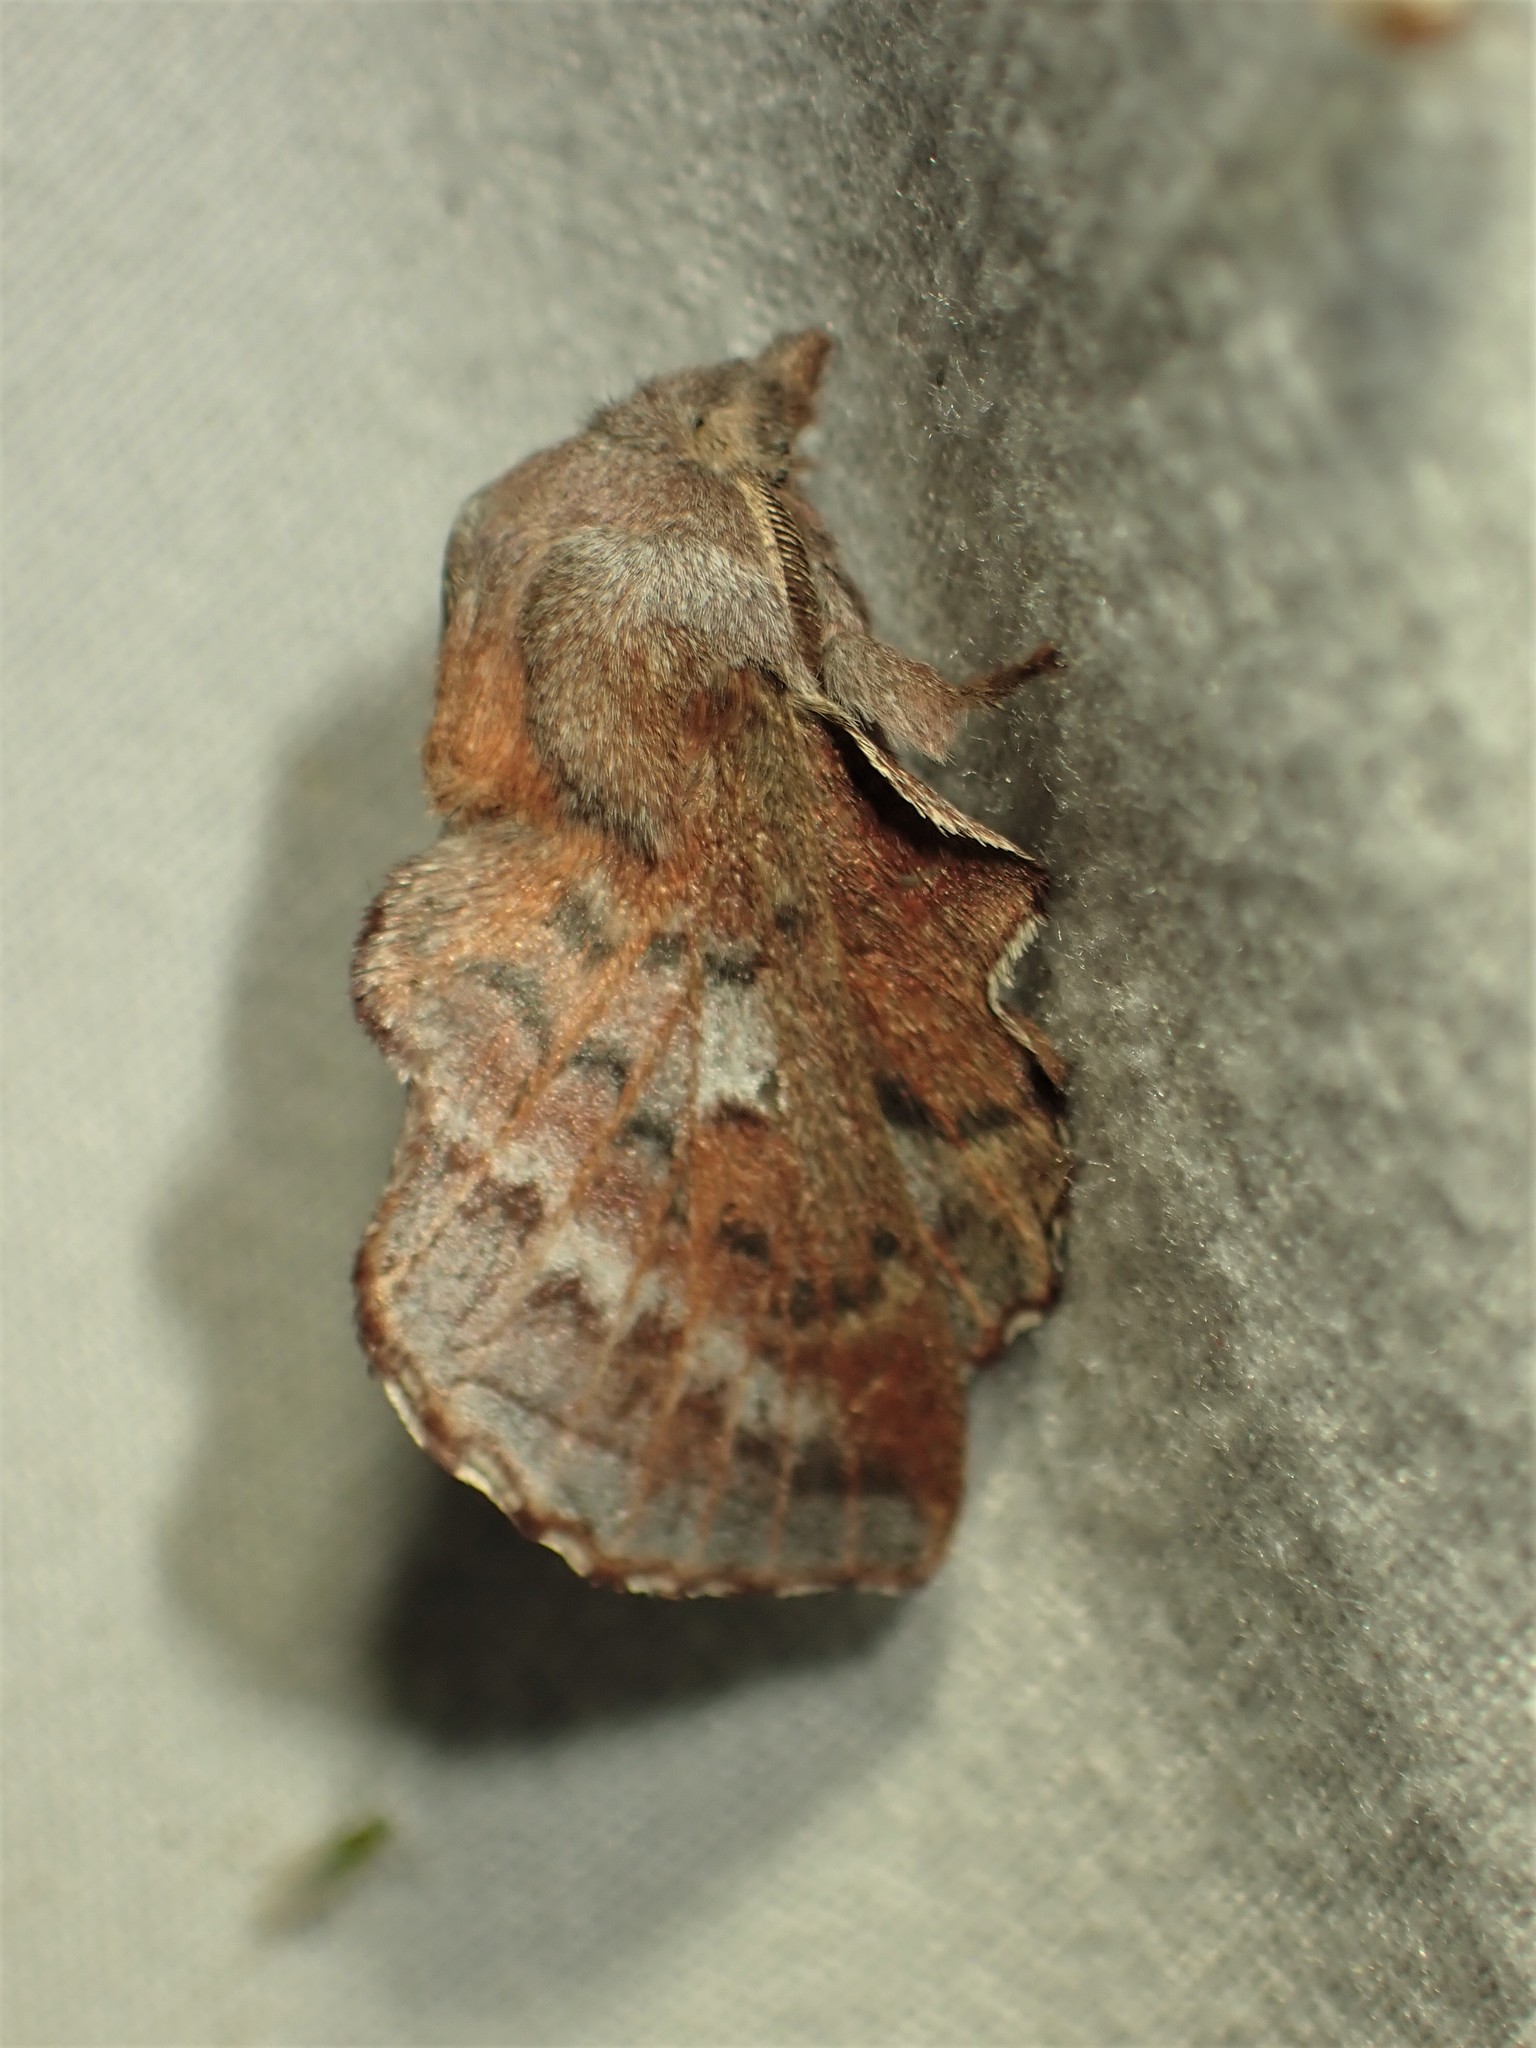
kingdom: Animalia
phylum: Arthropoda
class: Insecta
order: Lepidoptera
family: Lasiocampidae
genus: Phyllodesma
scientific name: Phyllodesma americana
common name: American lappet moth
